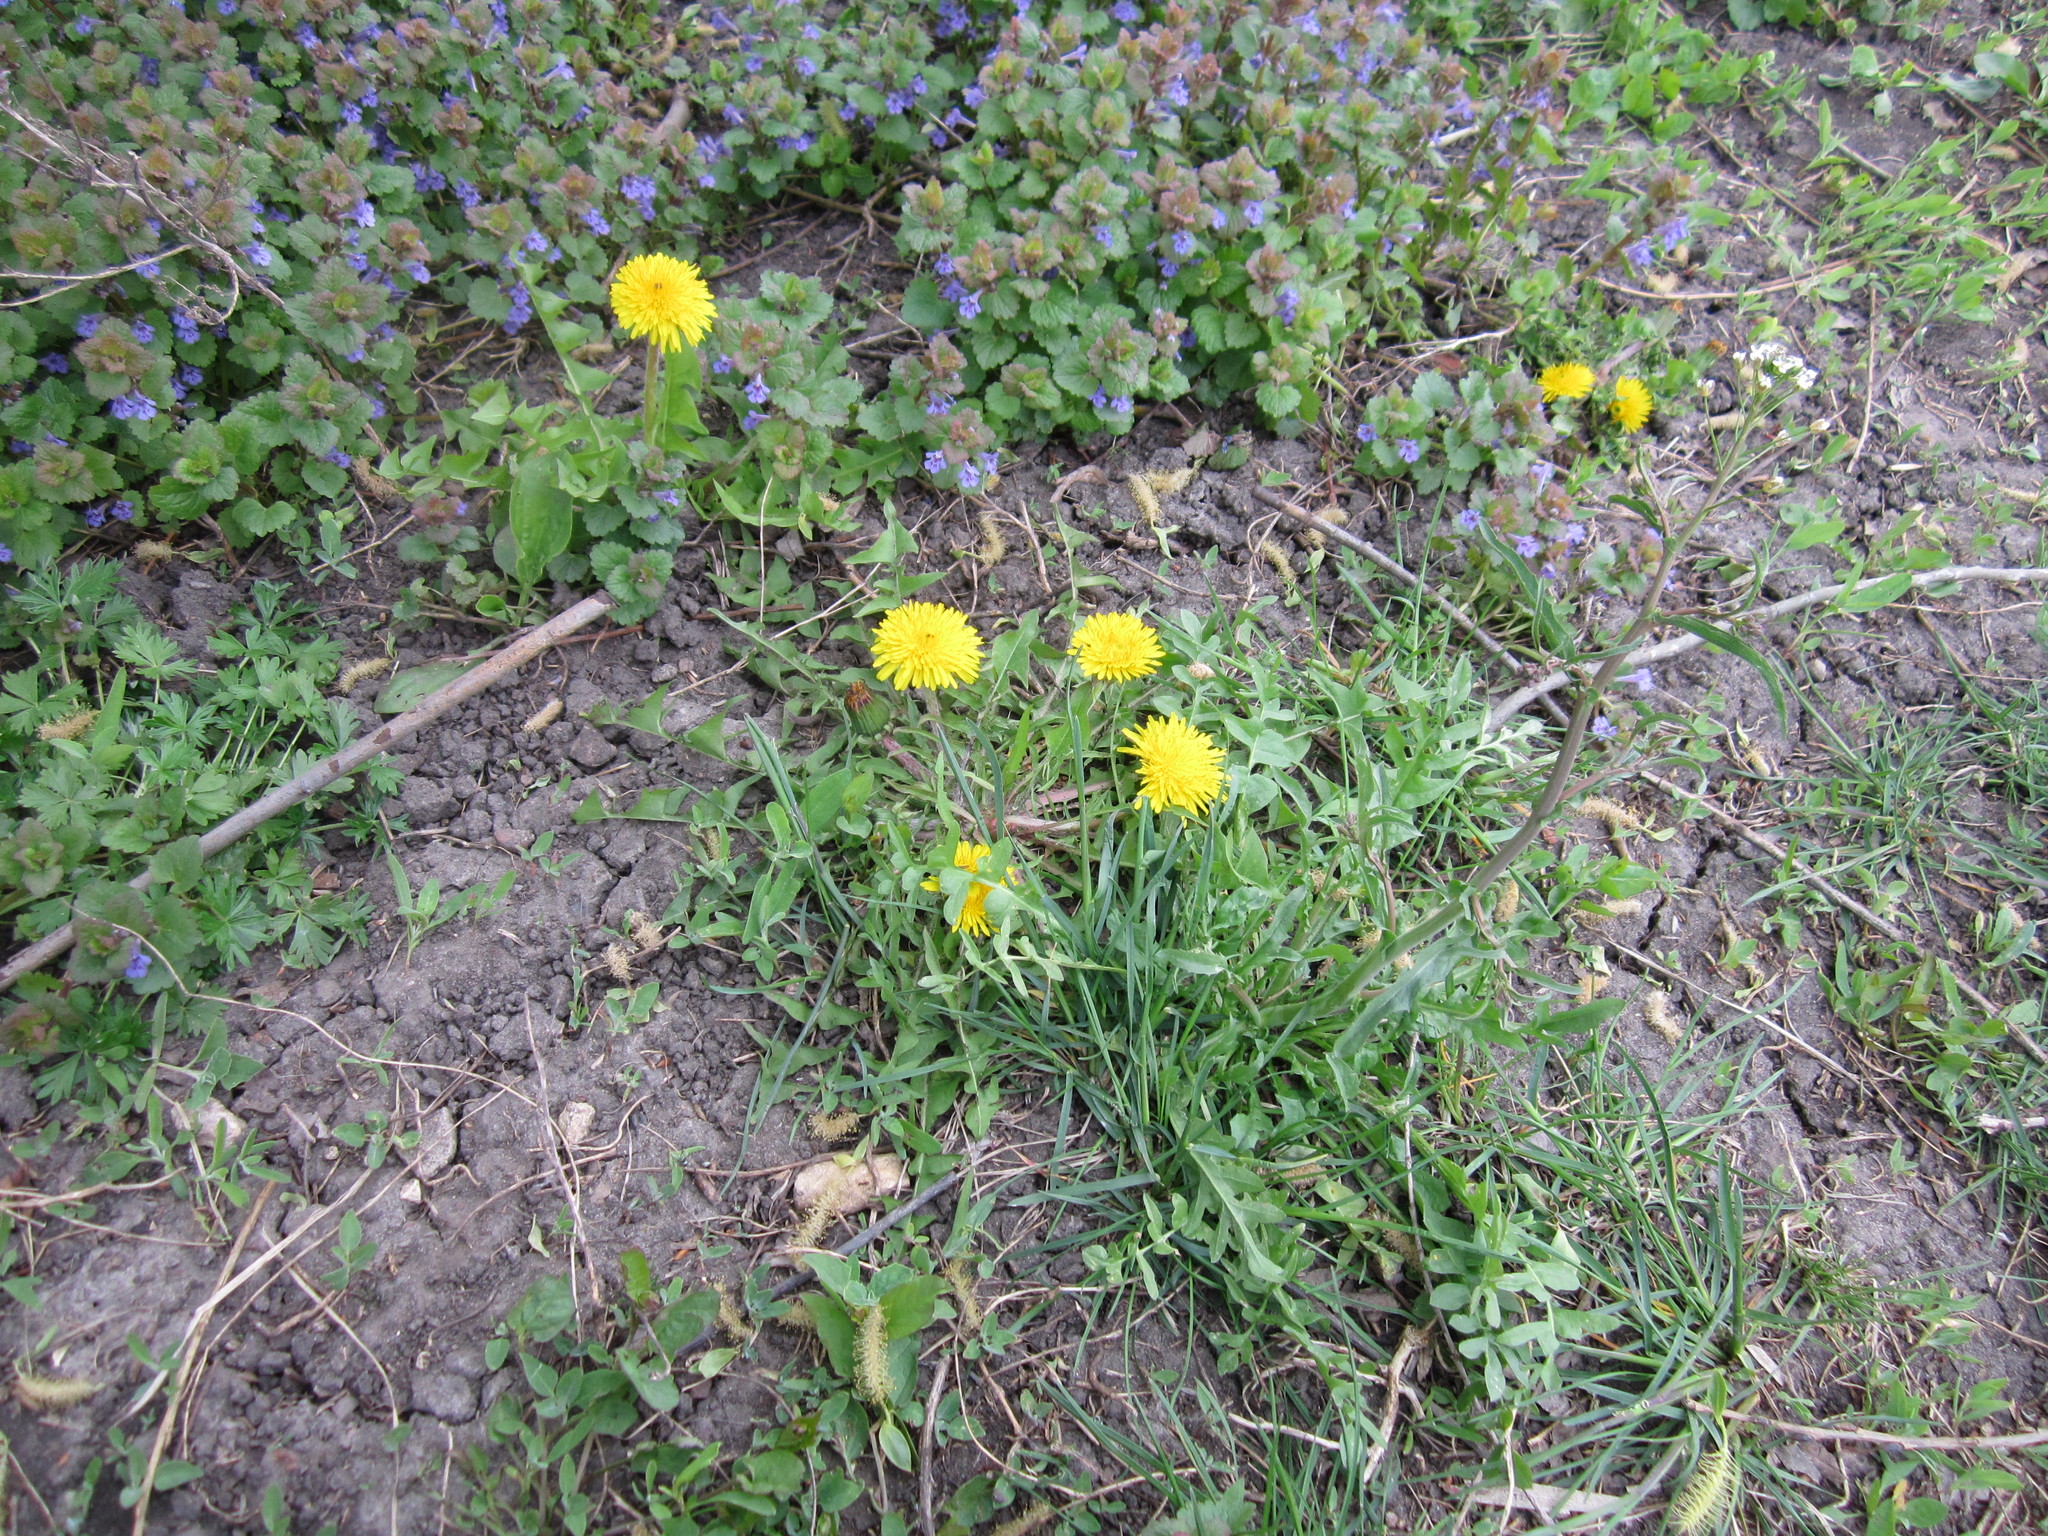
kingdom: Plantae
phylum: Tracheophyta
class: Magnoliopsida
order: Asterales
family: Asteraceae
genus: Taraxacum
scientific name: Taraxacum officinale
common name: Common dandelion
